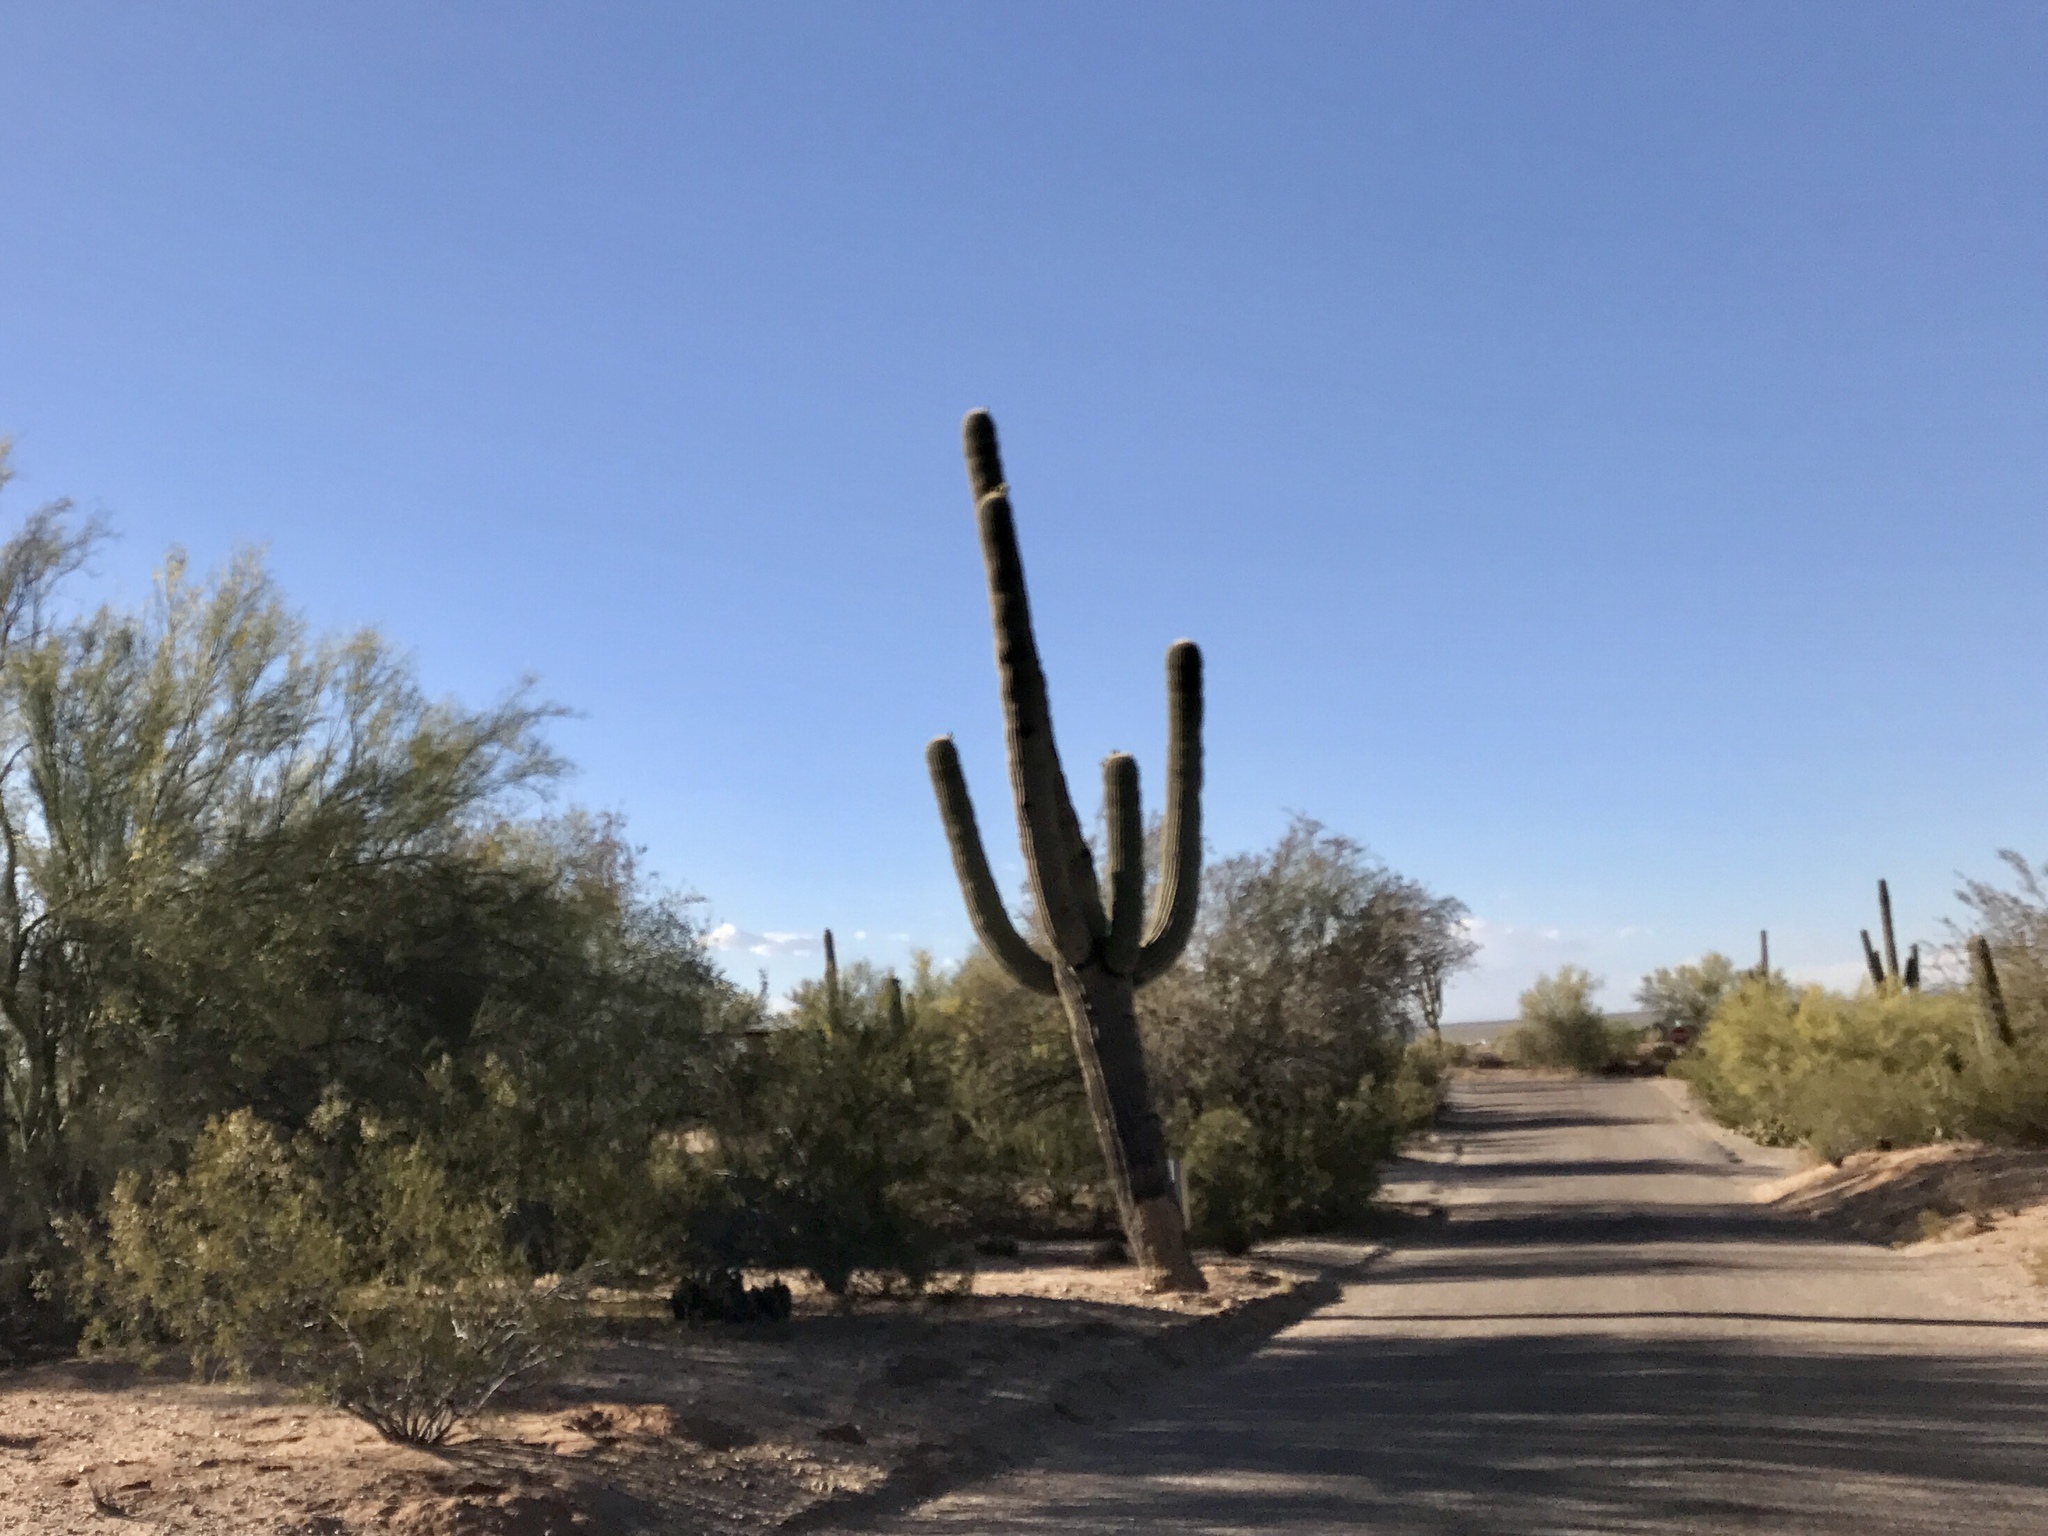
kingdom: Plantae
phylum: Tracheophyta
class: Magnoliopsida
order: Caryophyllales
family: Cactaceae
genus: Carnegiea
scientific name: Carnegiea gigantea
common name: Saguaro
